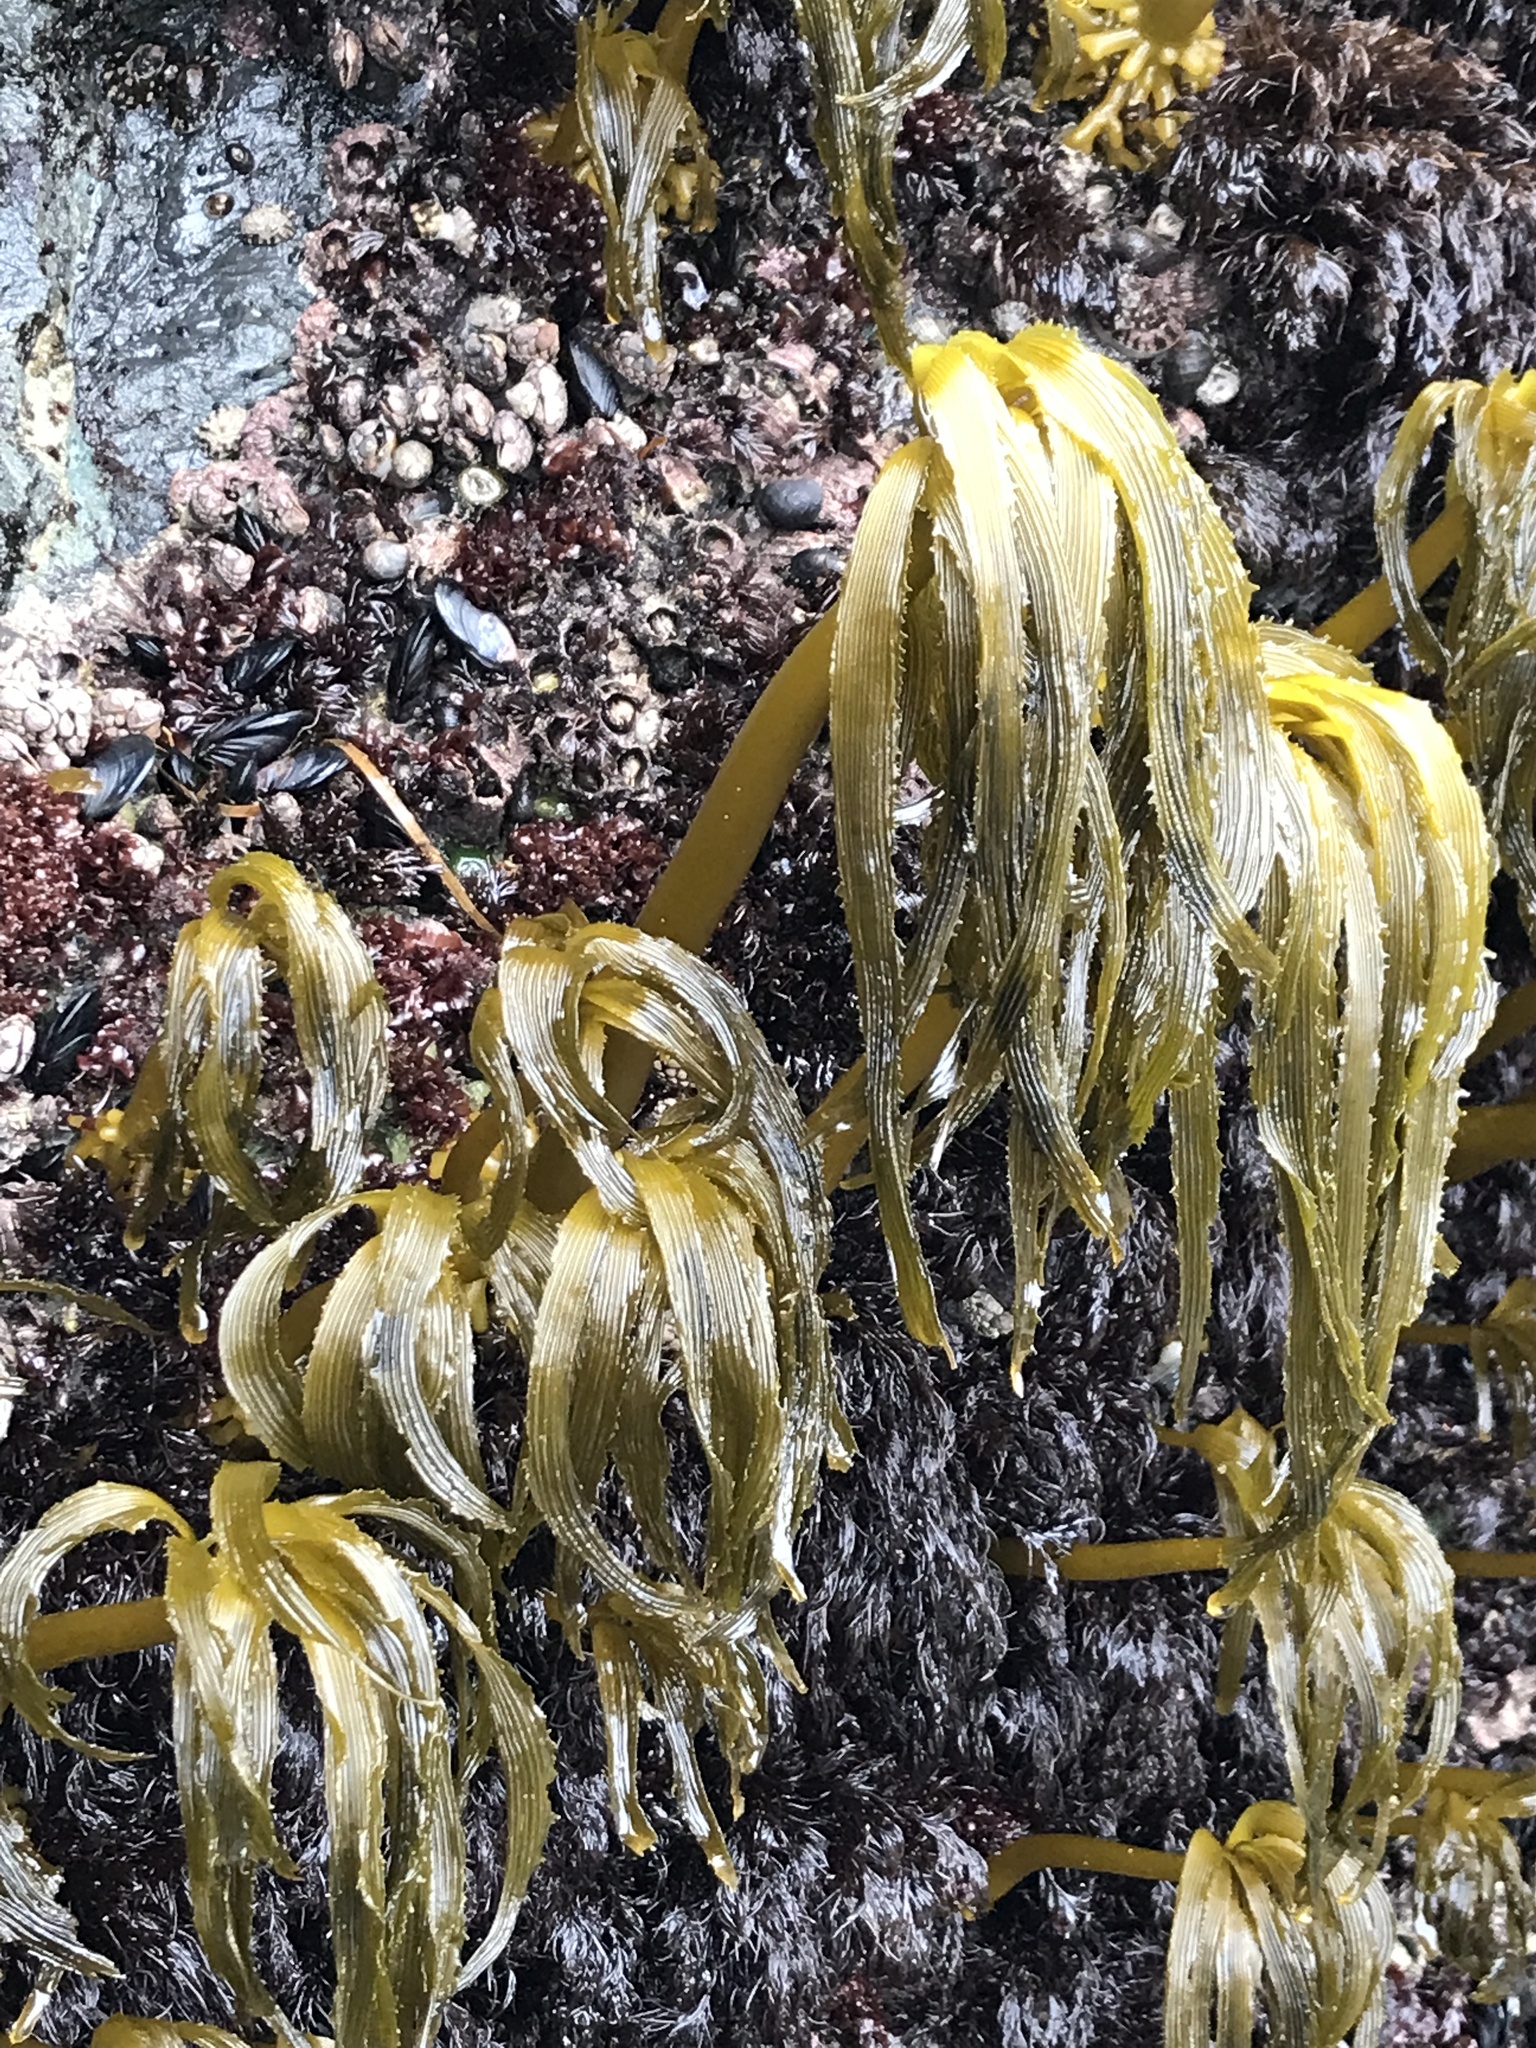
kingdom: Chromista
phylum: Ochrophyta
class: Phaeophyceae
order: Laminariales
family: Laminariaceae
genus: Postelsia
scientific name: Postelsia palmiformis
